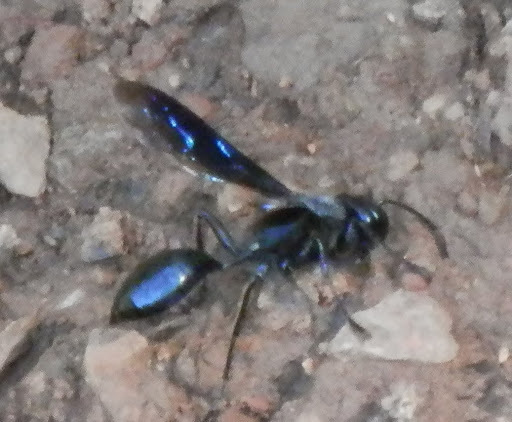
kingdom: Animalia
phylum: Arthropoda
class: Insecta
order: Hymenoptera
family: Sphecidae
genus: Isodontia
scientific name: Isodontia philadelphica
